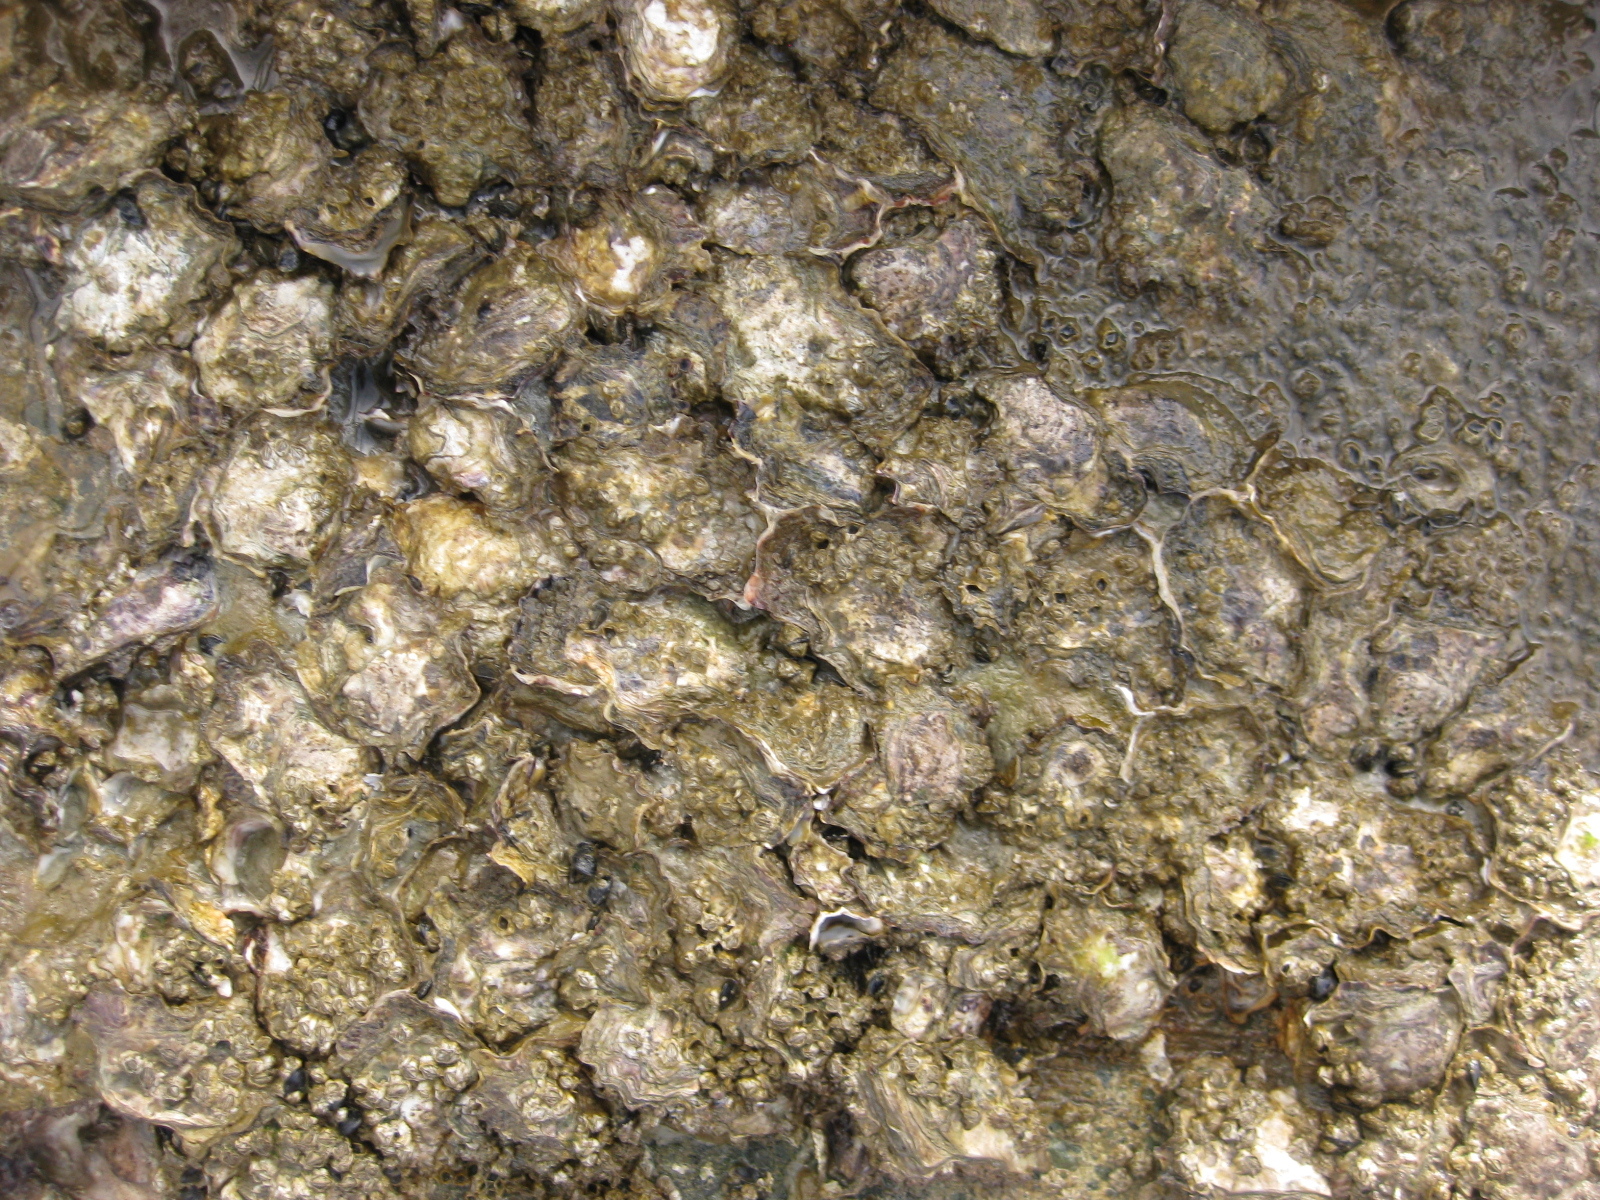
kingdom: Animalia
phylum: Mollusca
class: Bivalvia
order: Ostreida
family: Ostreidae
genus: Magallana
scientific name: Magallana gigas
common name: Pacific oyster
